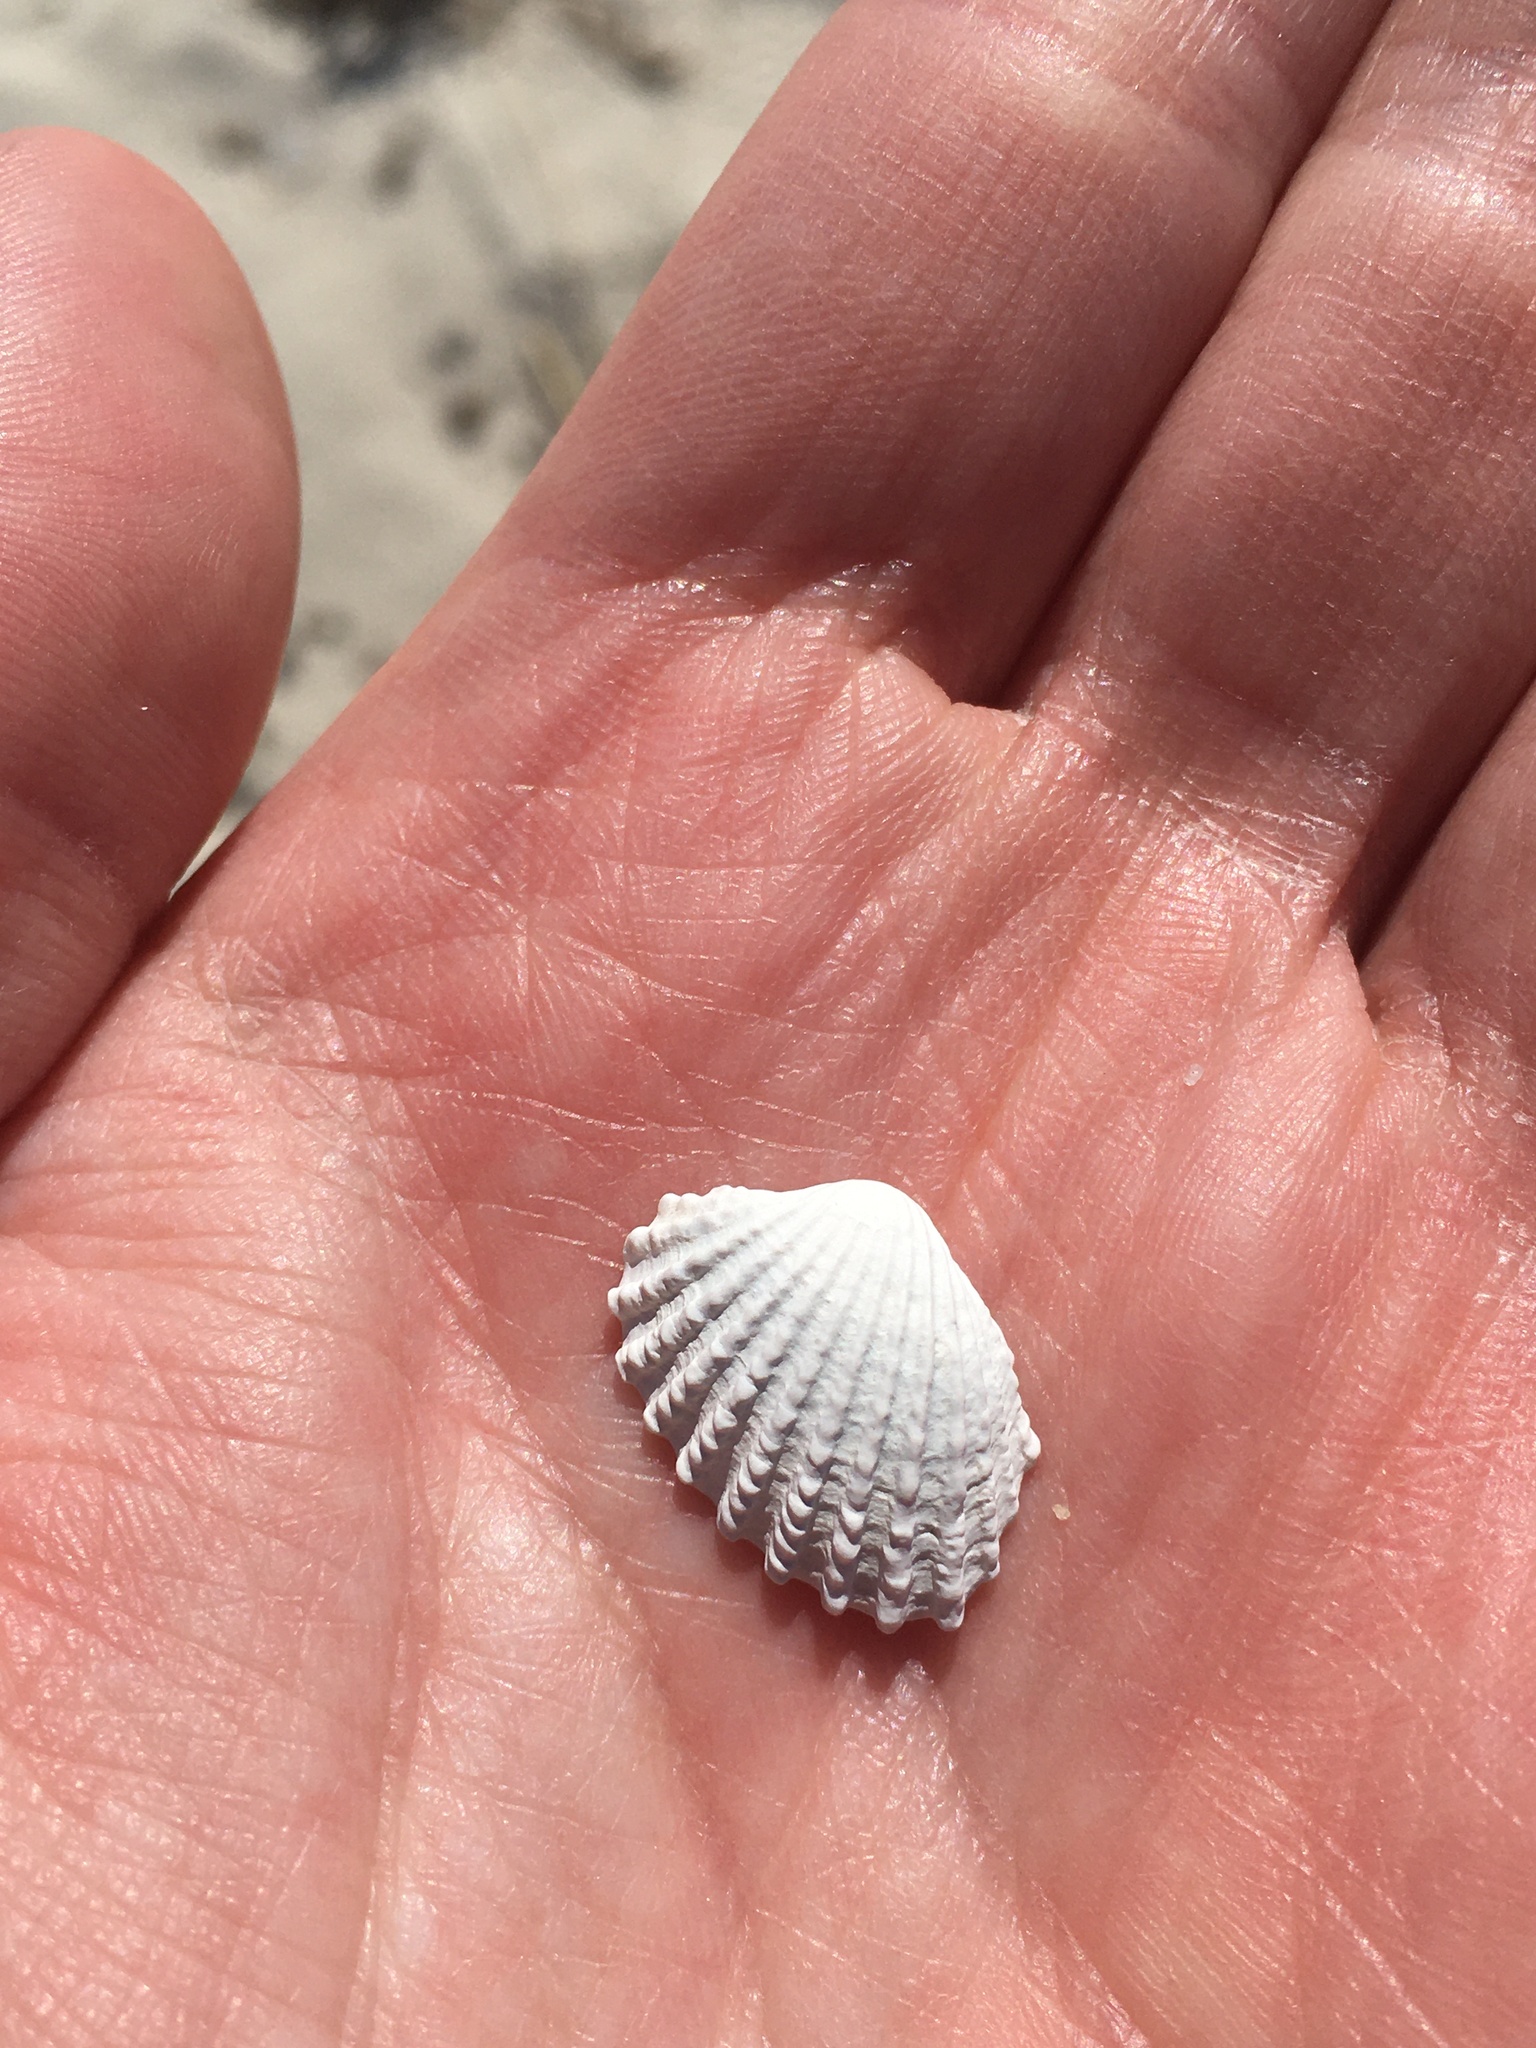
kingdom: Animalia
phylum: Mollusca
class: Bivalvia
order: Carditida
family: Carditidae
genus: Cardites
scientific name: Cardites floridanus
